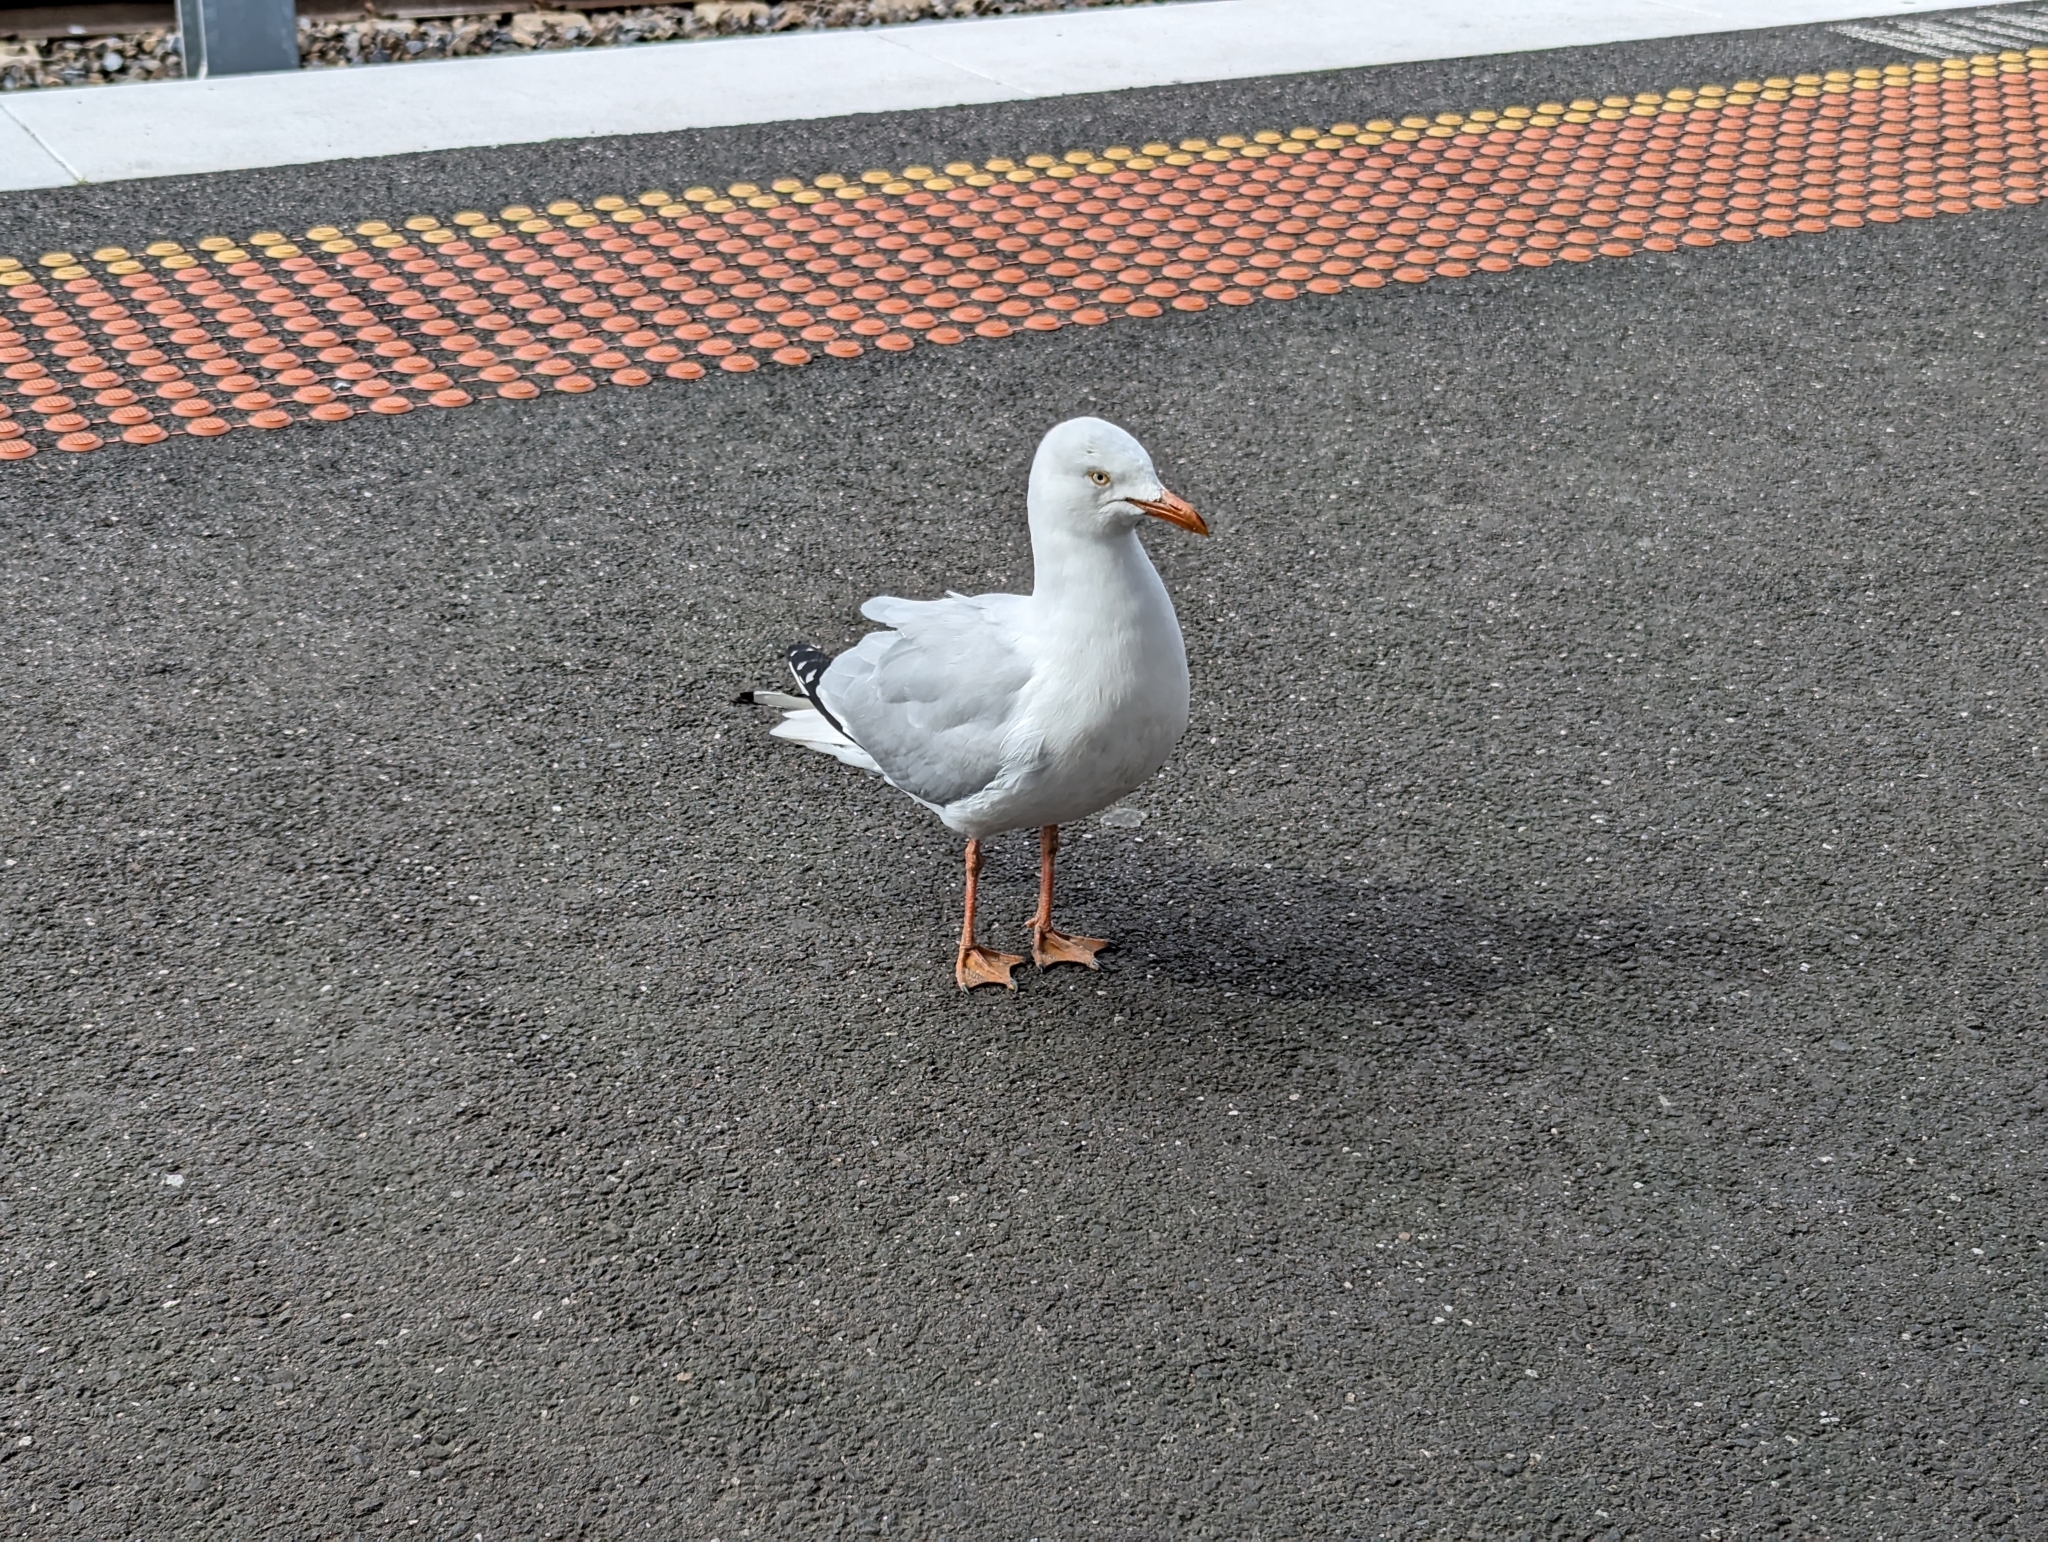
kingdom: Animalia
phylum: Chordata
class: Aves
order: Charadriiformes
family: Laridae
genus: Chroicocephalus
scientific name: Chroicocephalus novaehollandiae
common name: Silver gull
